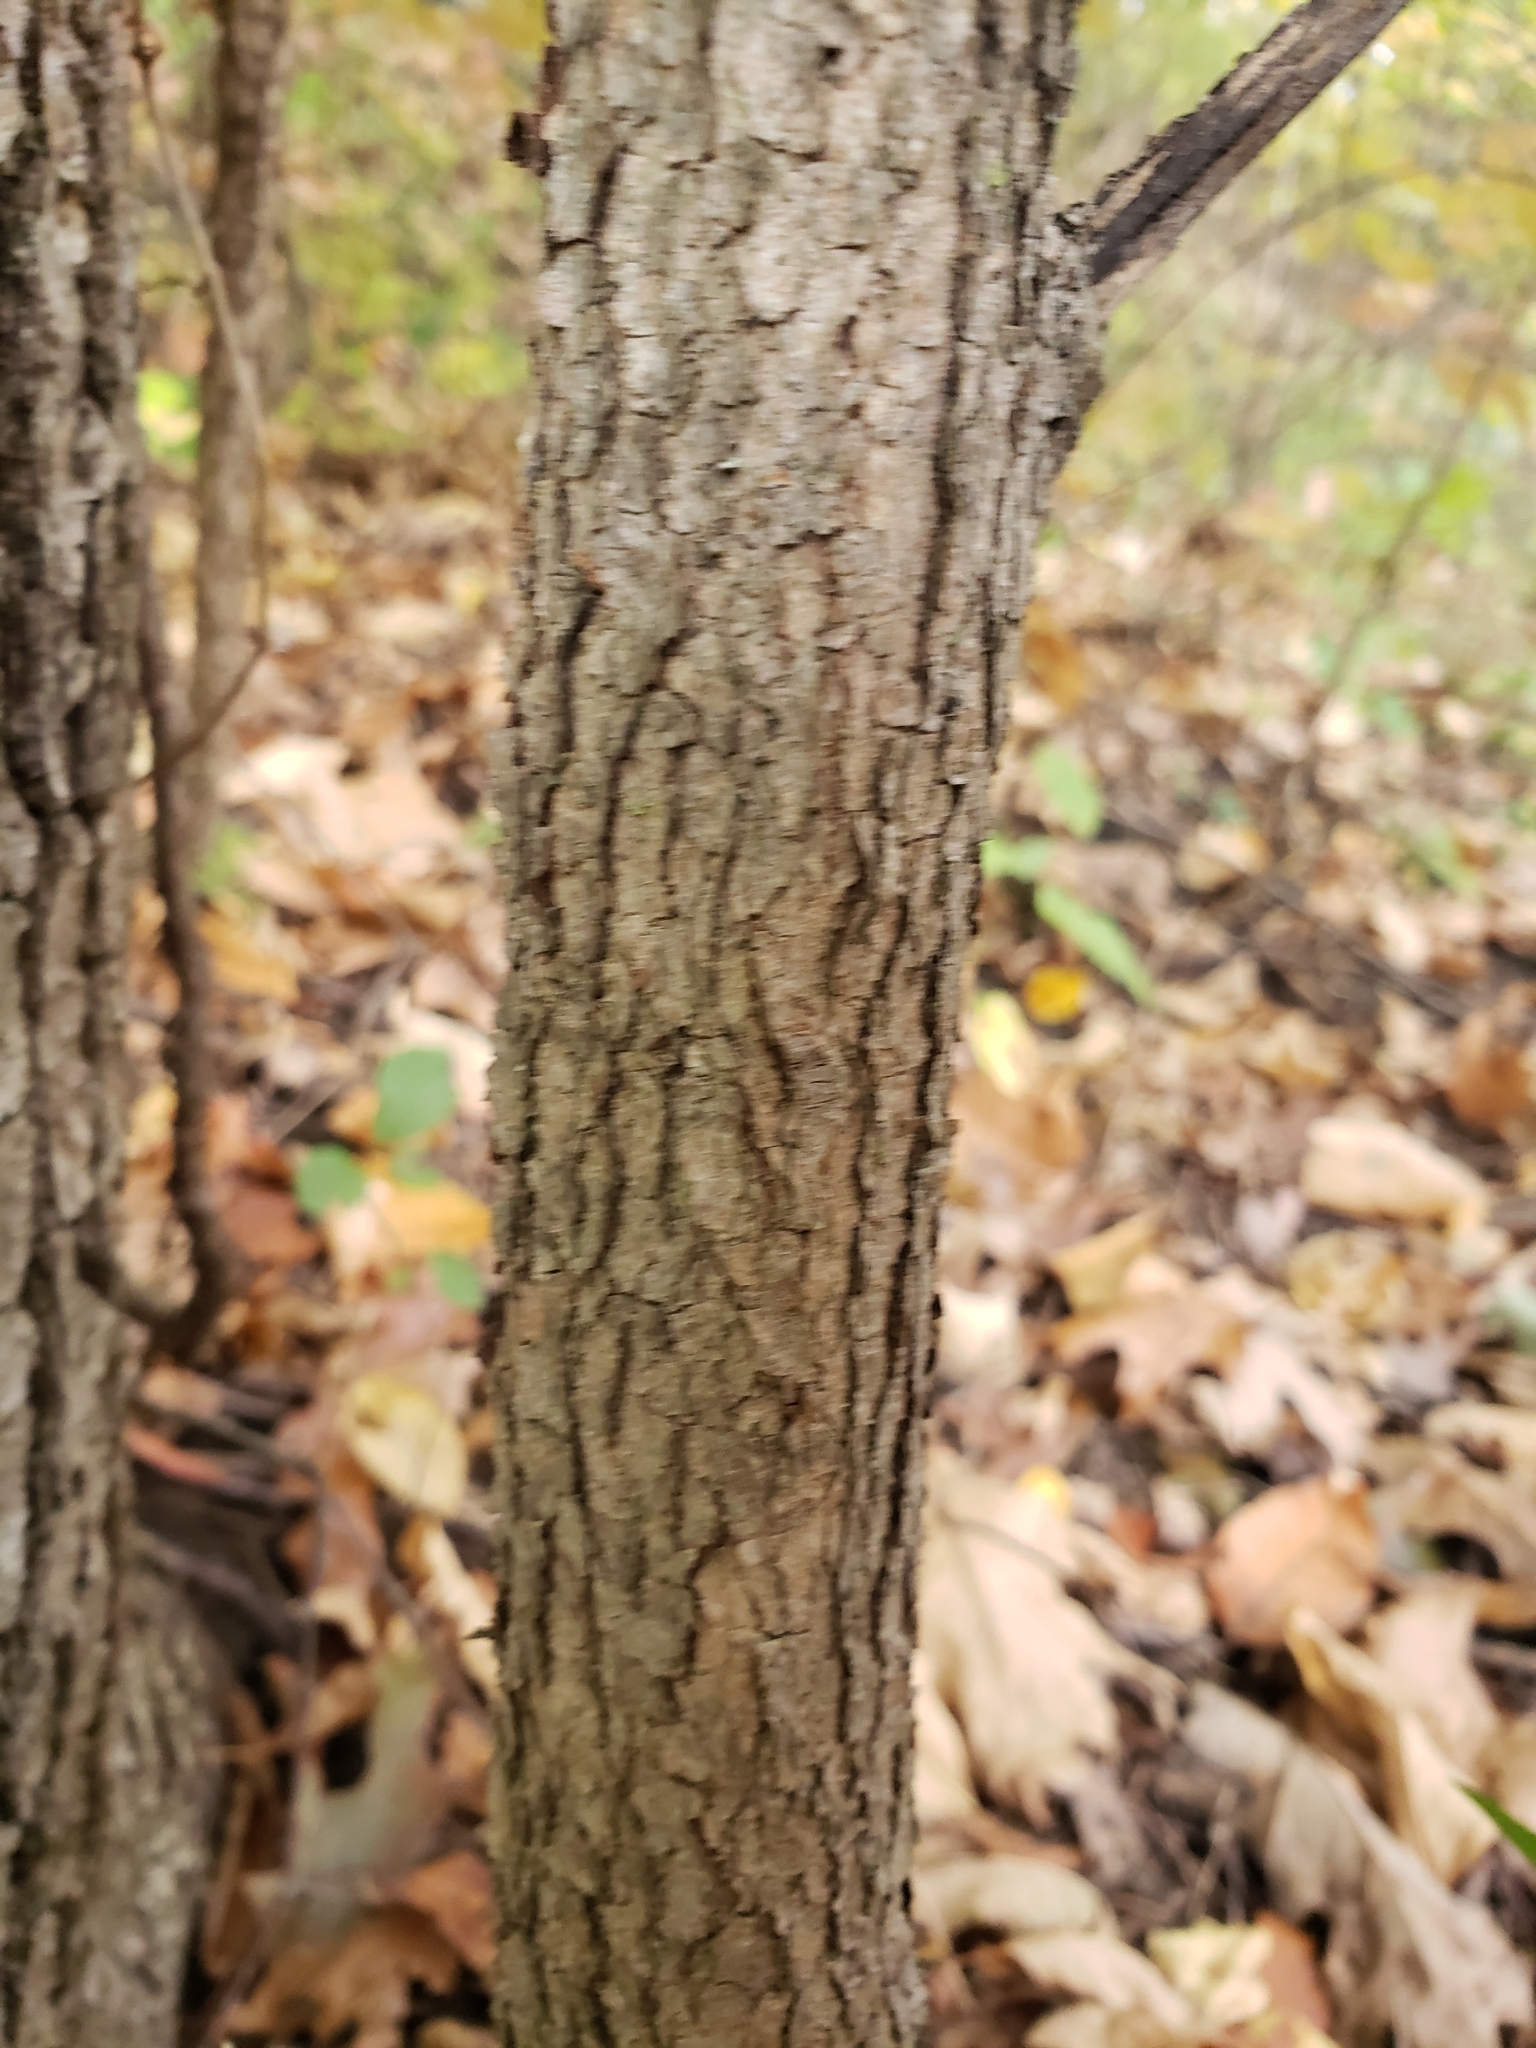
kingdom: Plantae
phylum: Tracheophyta
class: Magnoliopsida
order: Cornales
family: Cornaceae
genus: Cornus
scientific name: Cornus florida
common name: Flowering dogwood
